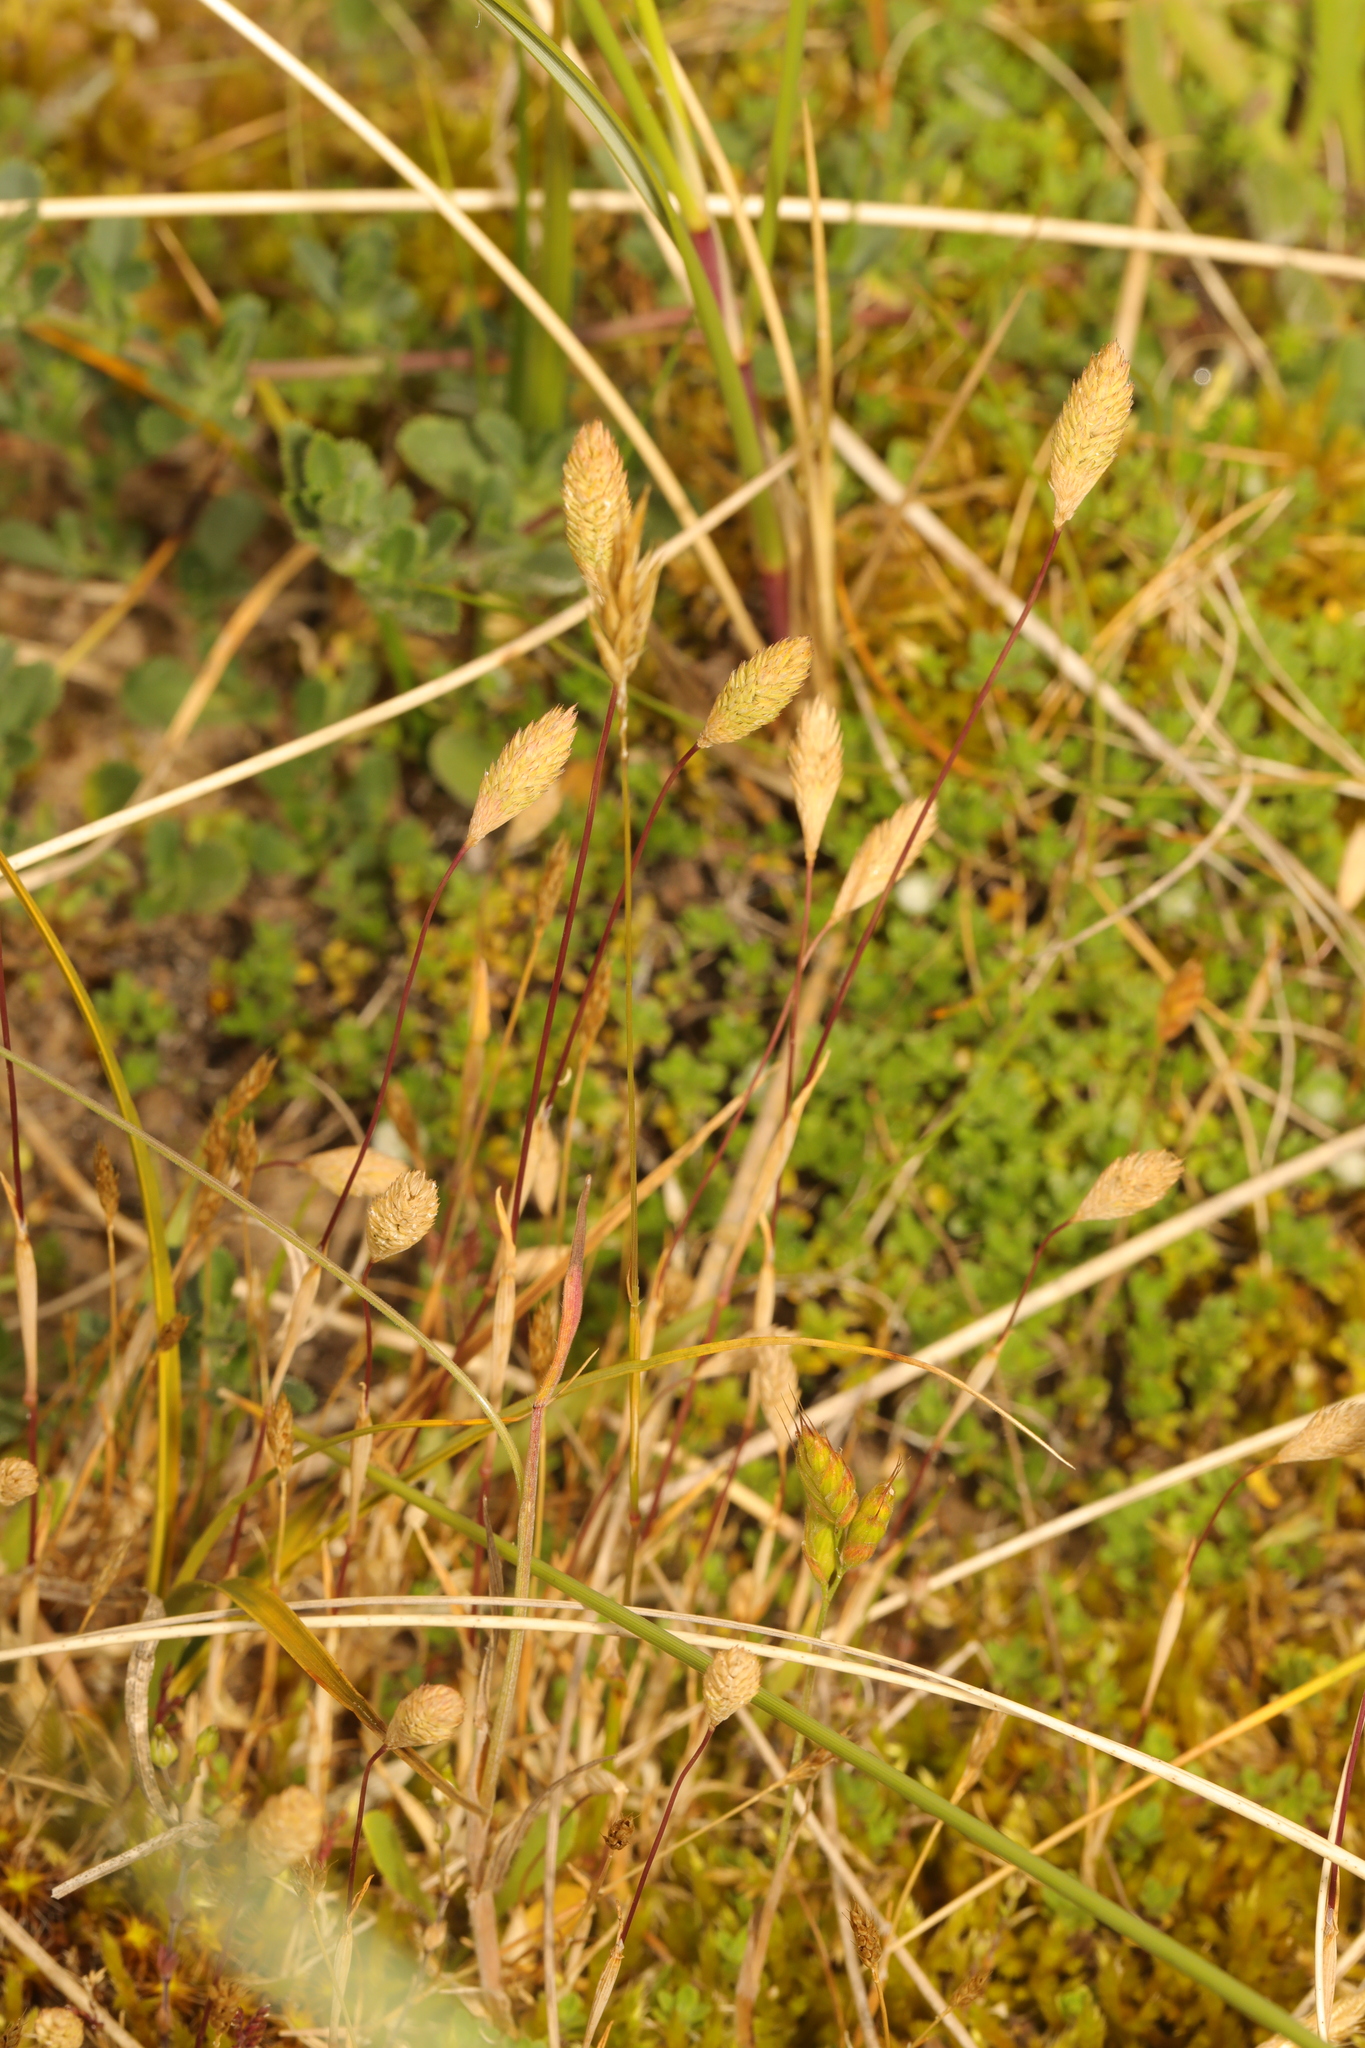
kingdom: Plantae
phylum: Tracheophyta
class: Liliopsida
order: Poales
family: Poaceae
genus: Phleum
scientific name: Phleum arenarium
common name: Sand cat's-tail
